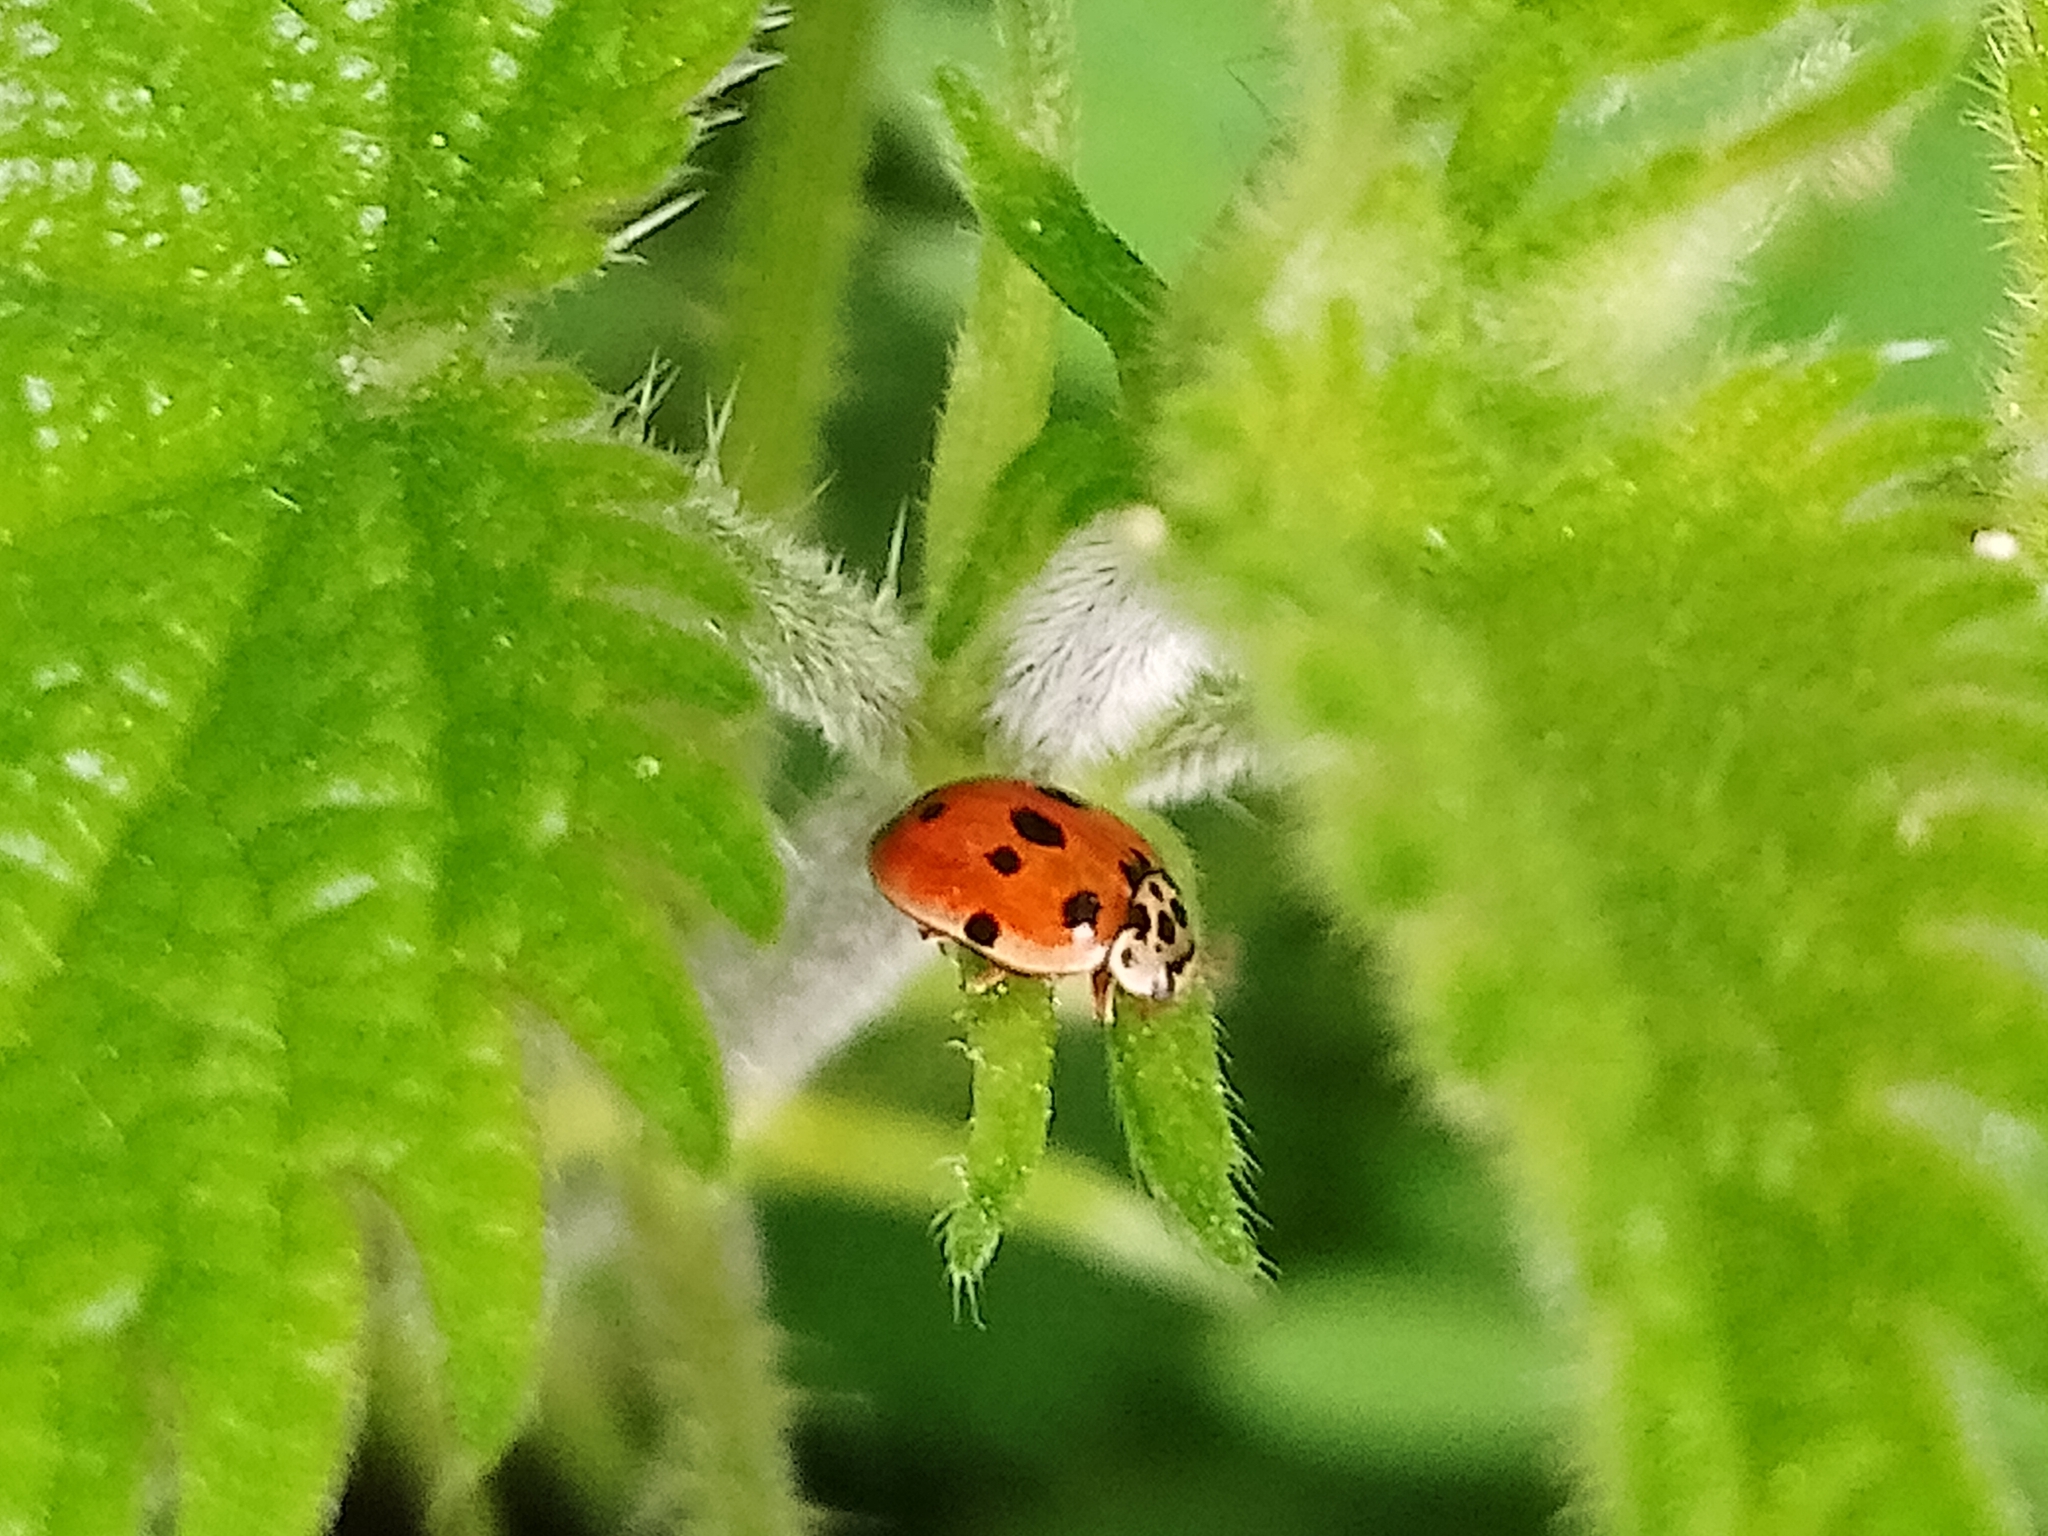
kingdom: Animalia
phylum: Arthropoda
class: Insecta
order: Coleoptera
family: Coccinellidae
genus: Adalia
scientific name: Adalia decempunctata
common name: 10-spot ladybird
